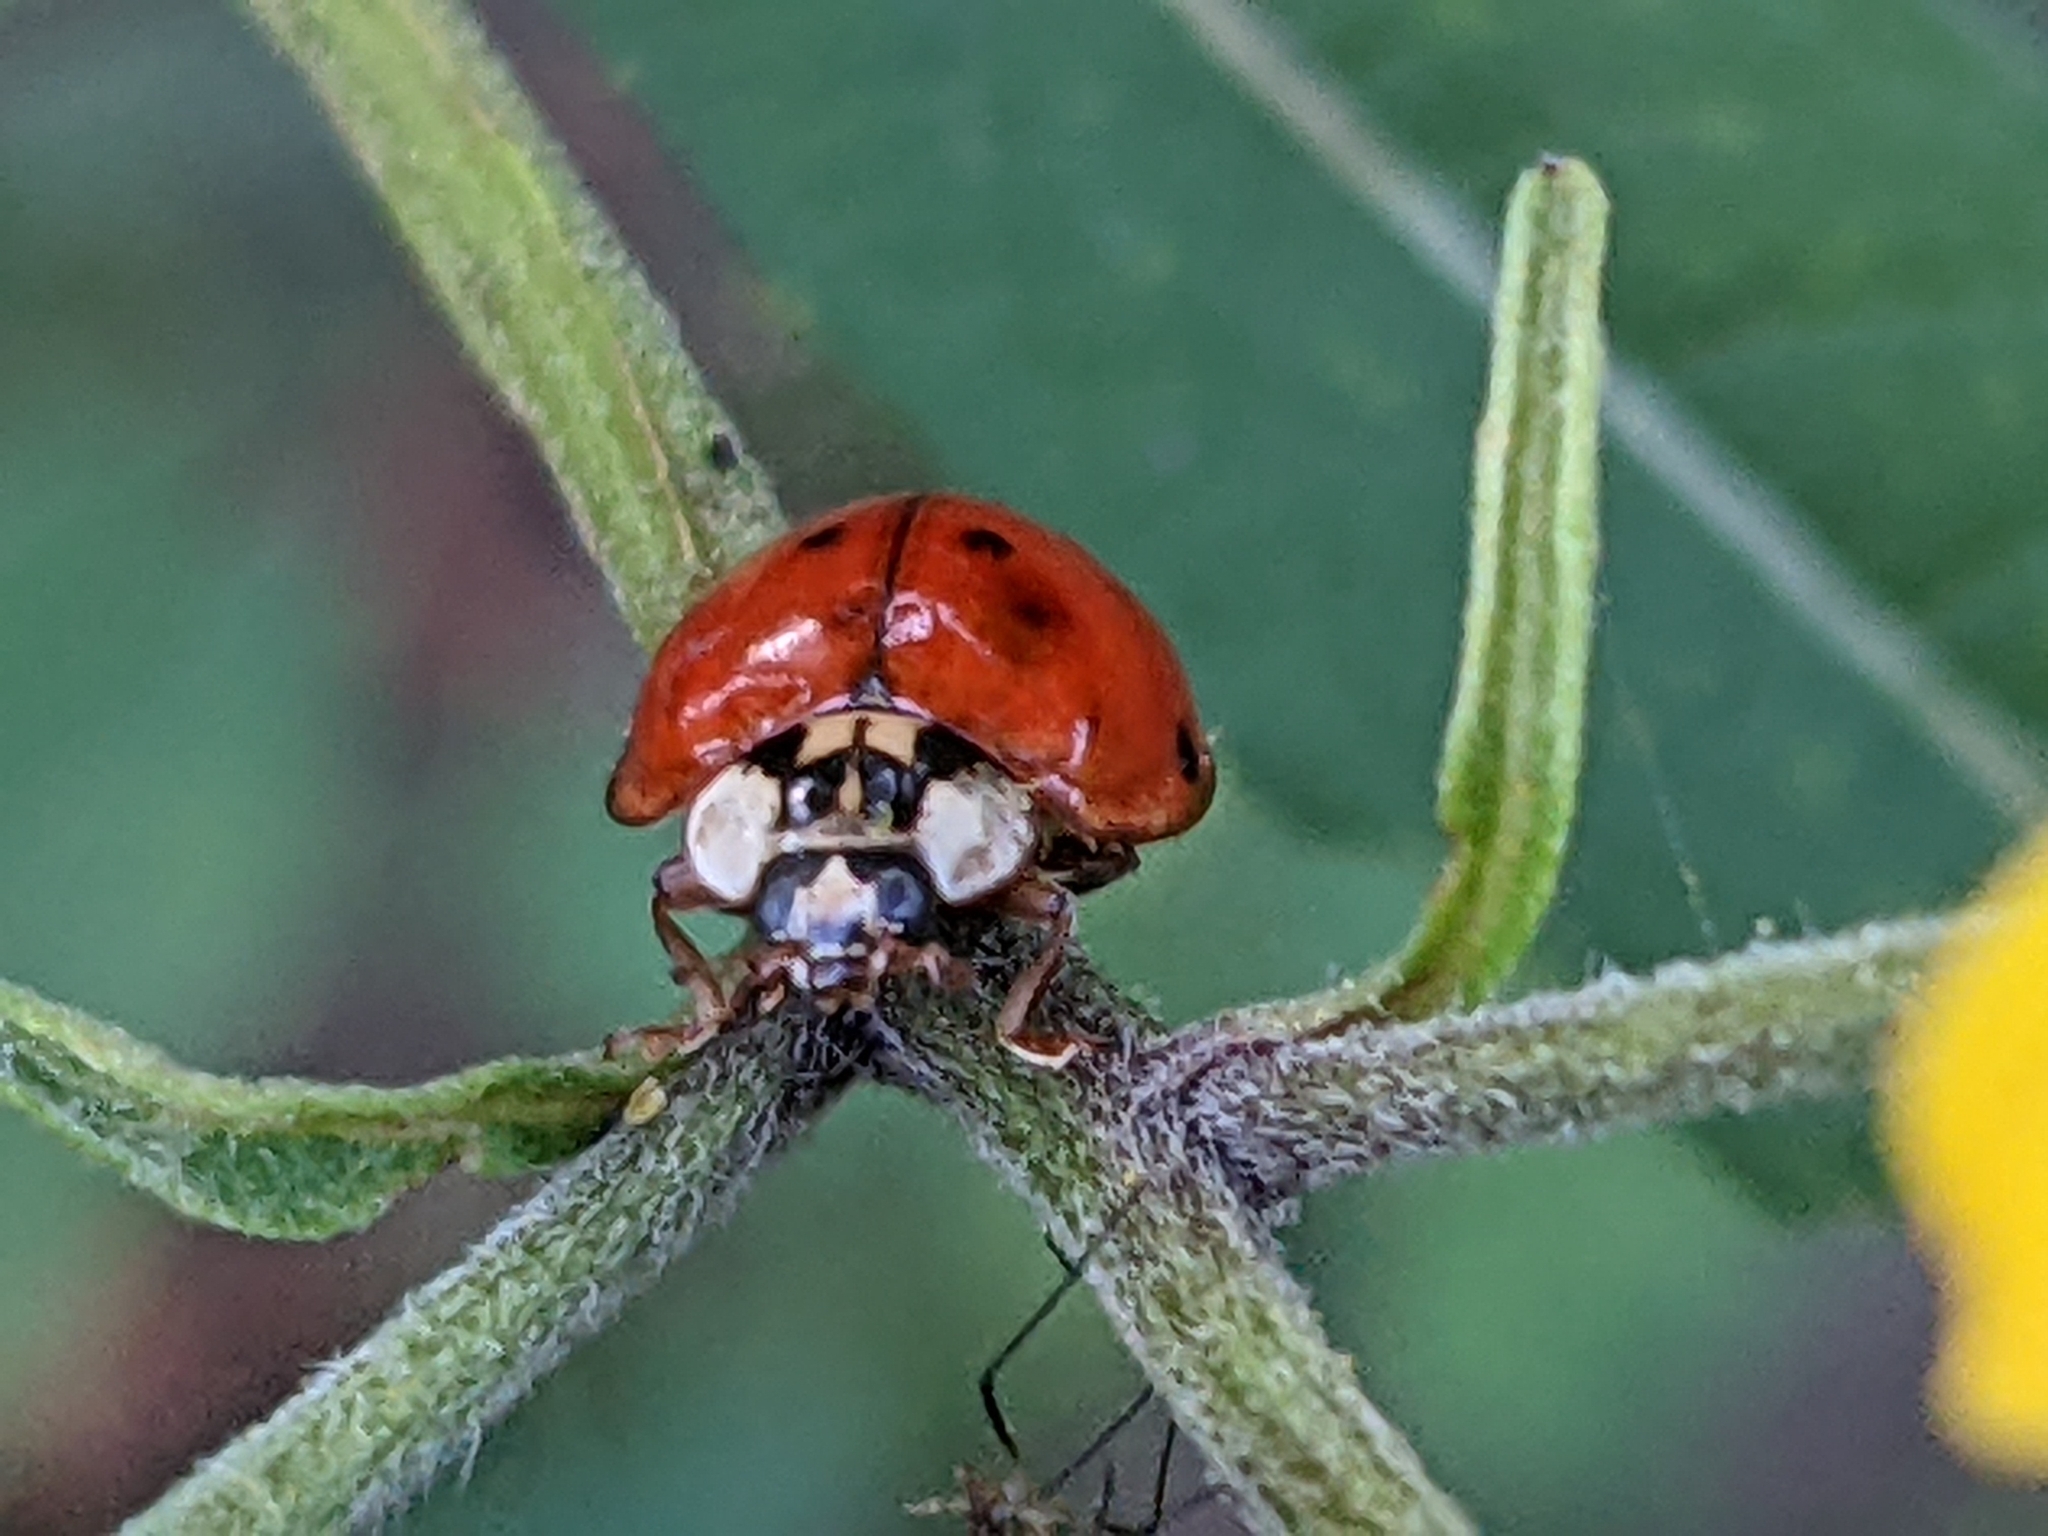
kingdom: Animalia
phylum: Arthropoda
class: Insecta
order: Coleoptera
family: Coccinellidae
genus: Harmonia
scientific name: Harmonia axyridis
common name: Harlequin ladybird
